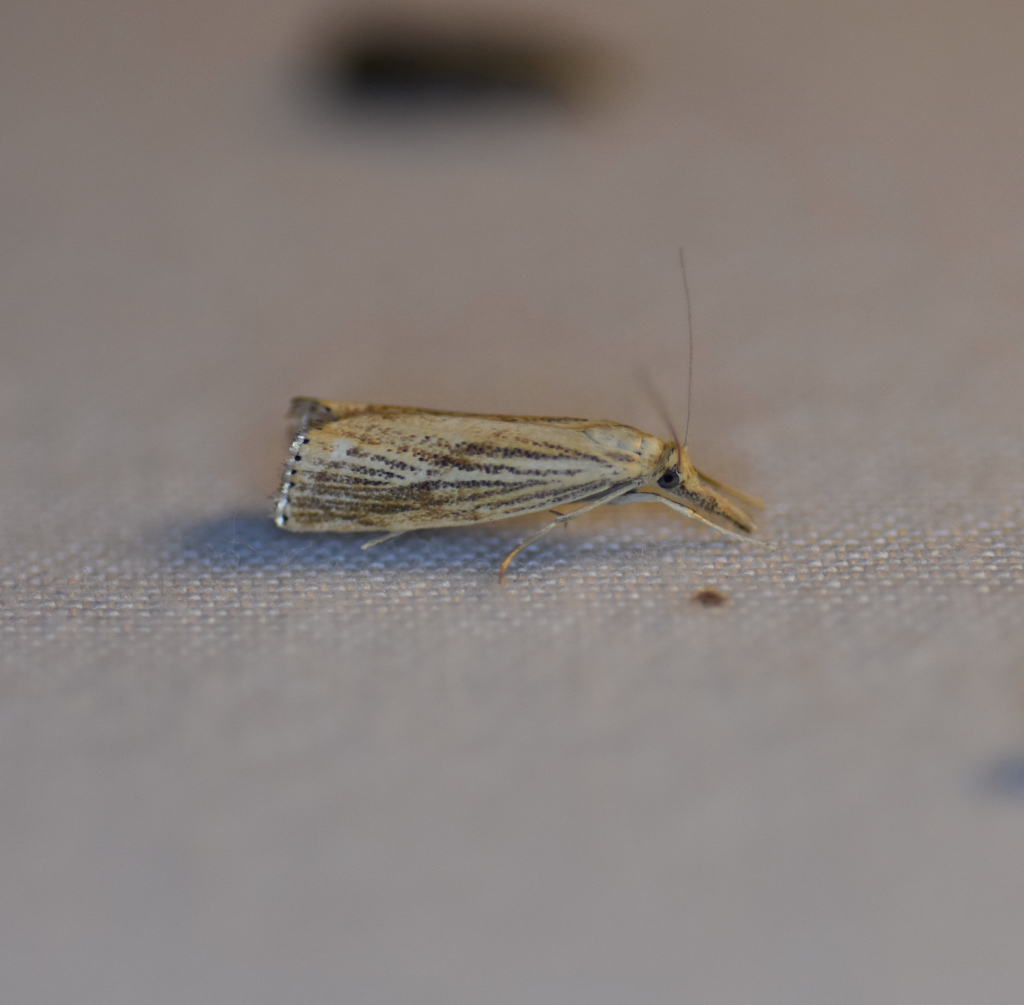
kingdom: Animalia
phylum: Arthropoda
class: Insecta
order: Lepidoptera
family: Crambidae
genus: Agriphila
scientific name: Agriphila ruricolellus
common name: Lesser vagabond sod webworm
